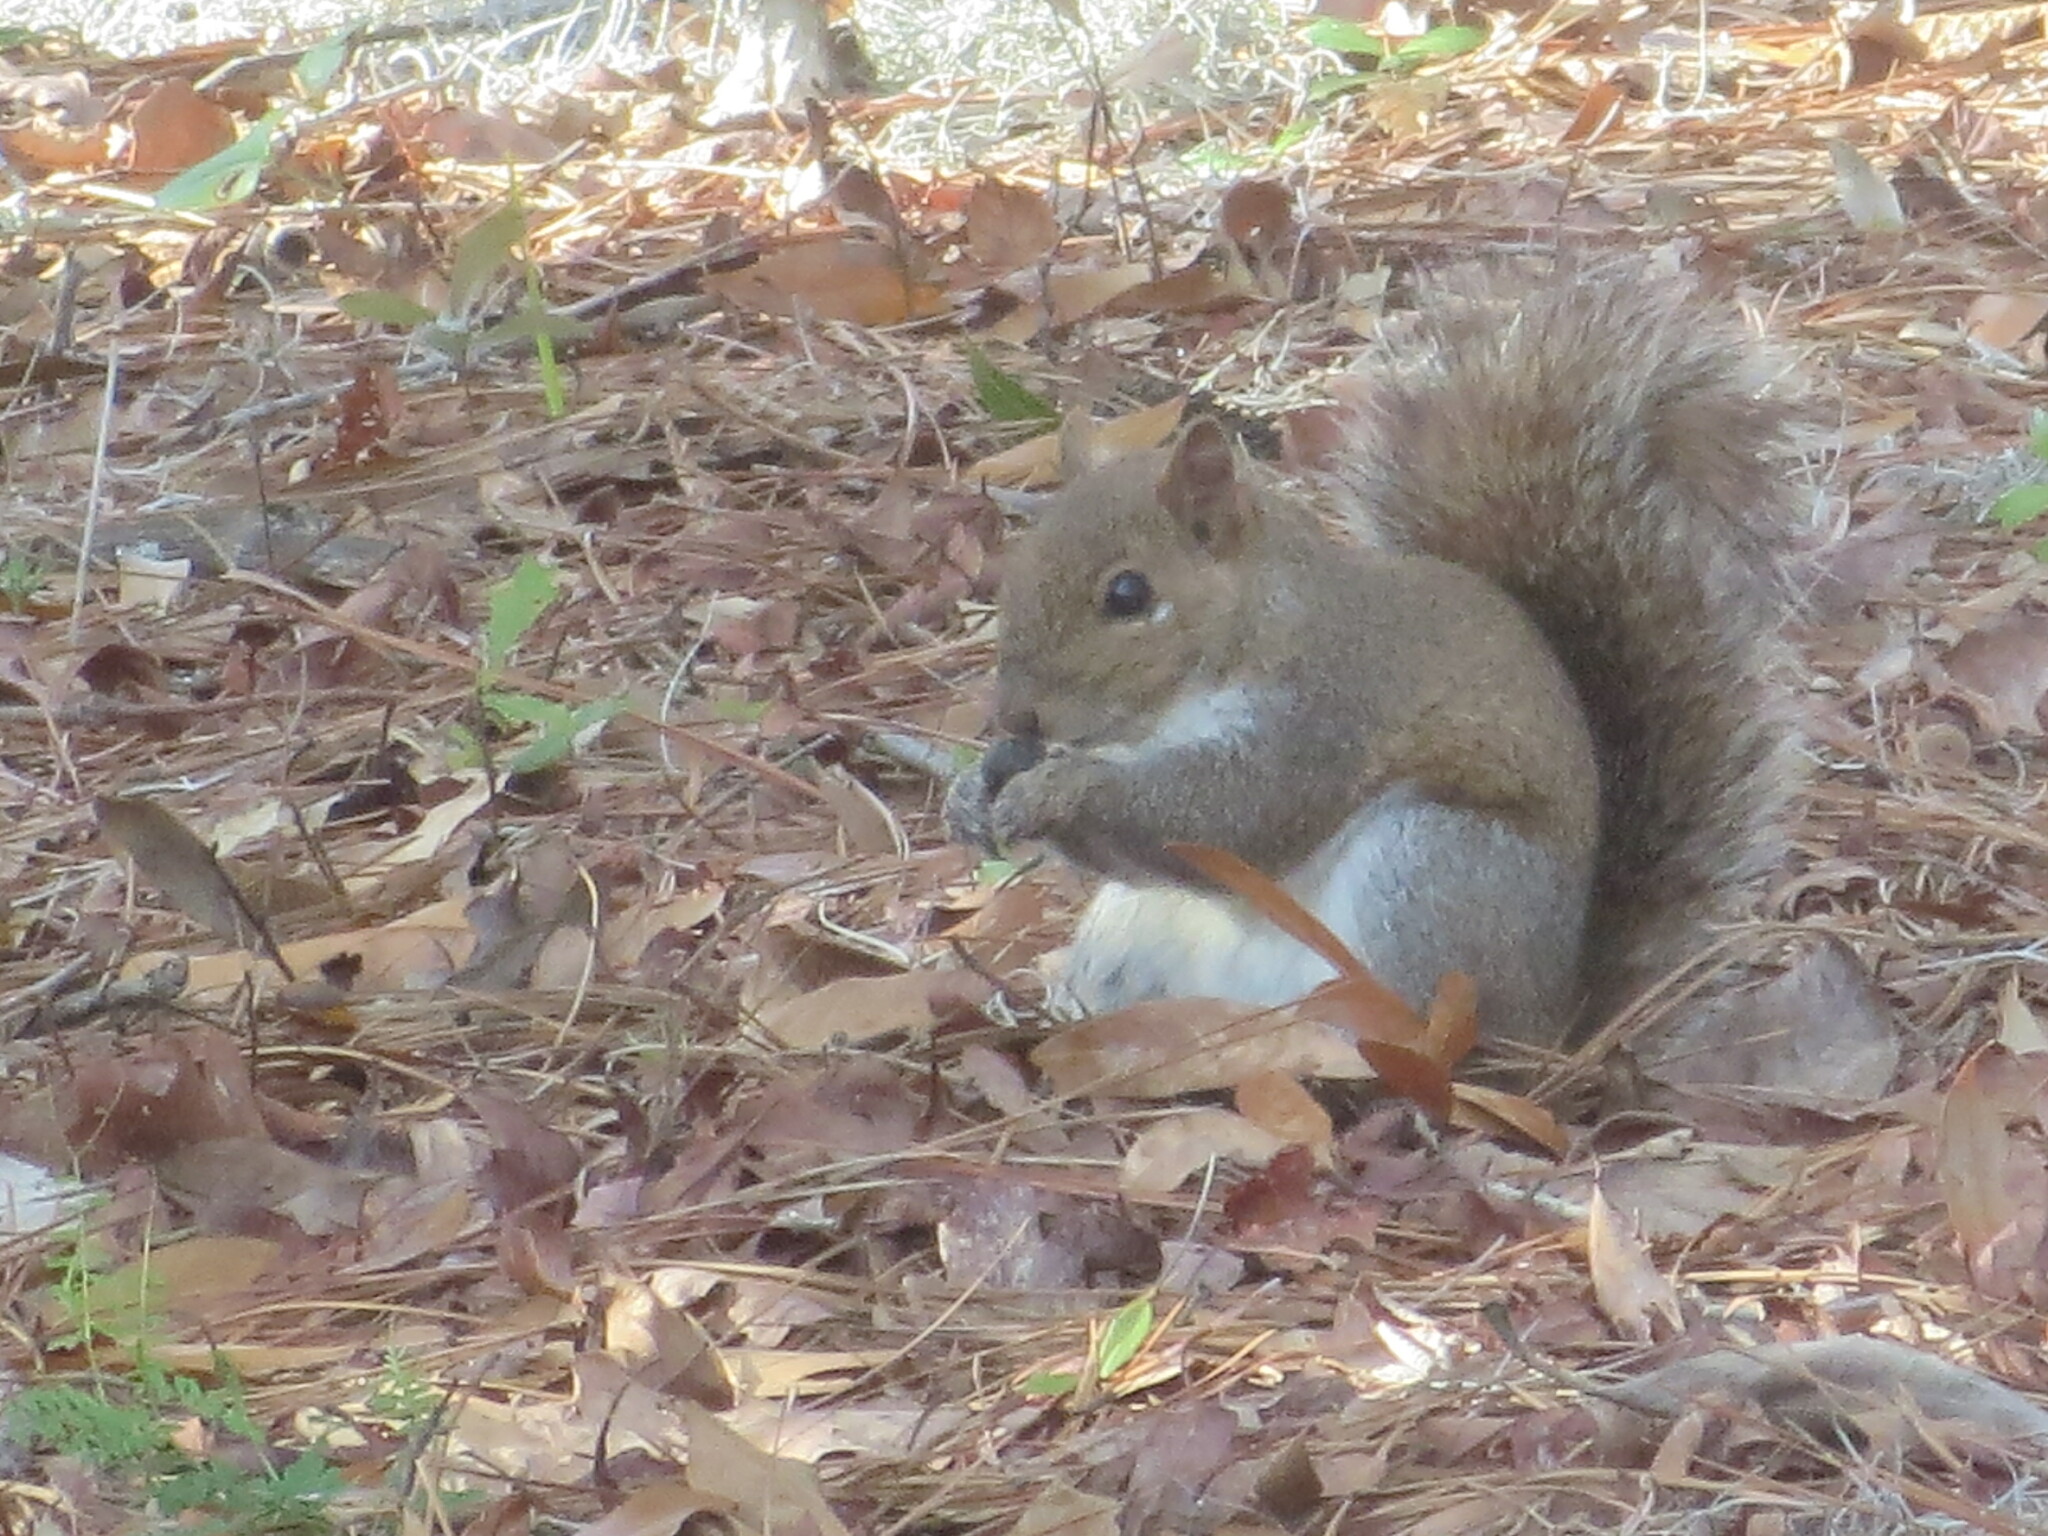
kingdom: Animalia
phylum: Chordata
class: Mammalia
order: Rodentia
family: Sciuridae
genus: Sciurus
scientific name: Sciurus carolinensis
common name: Eastern gray squirrel
